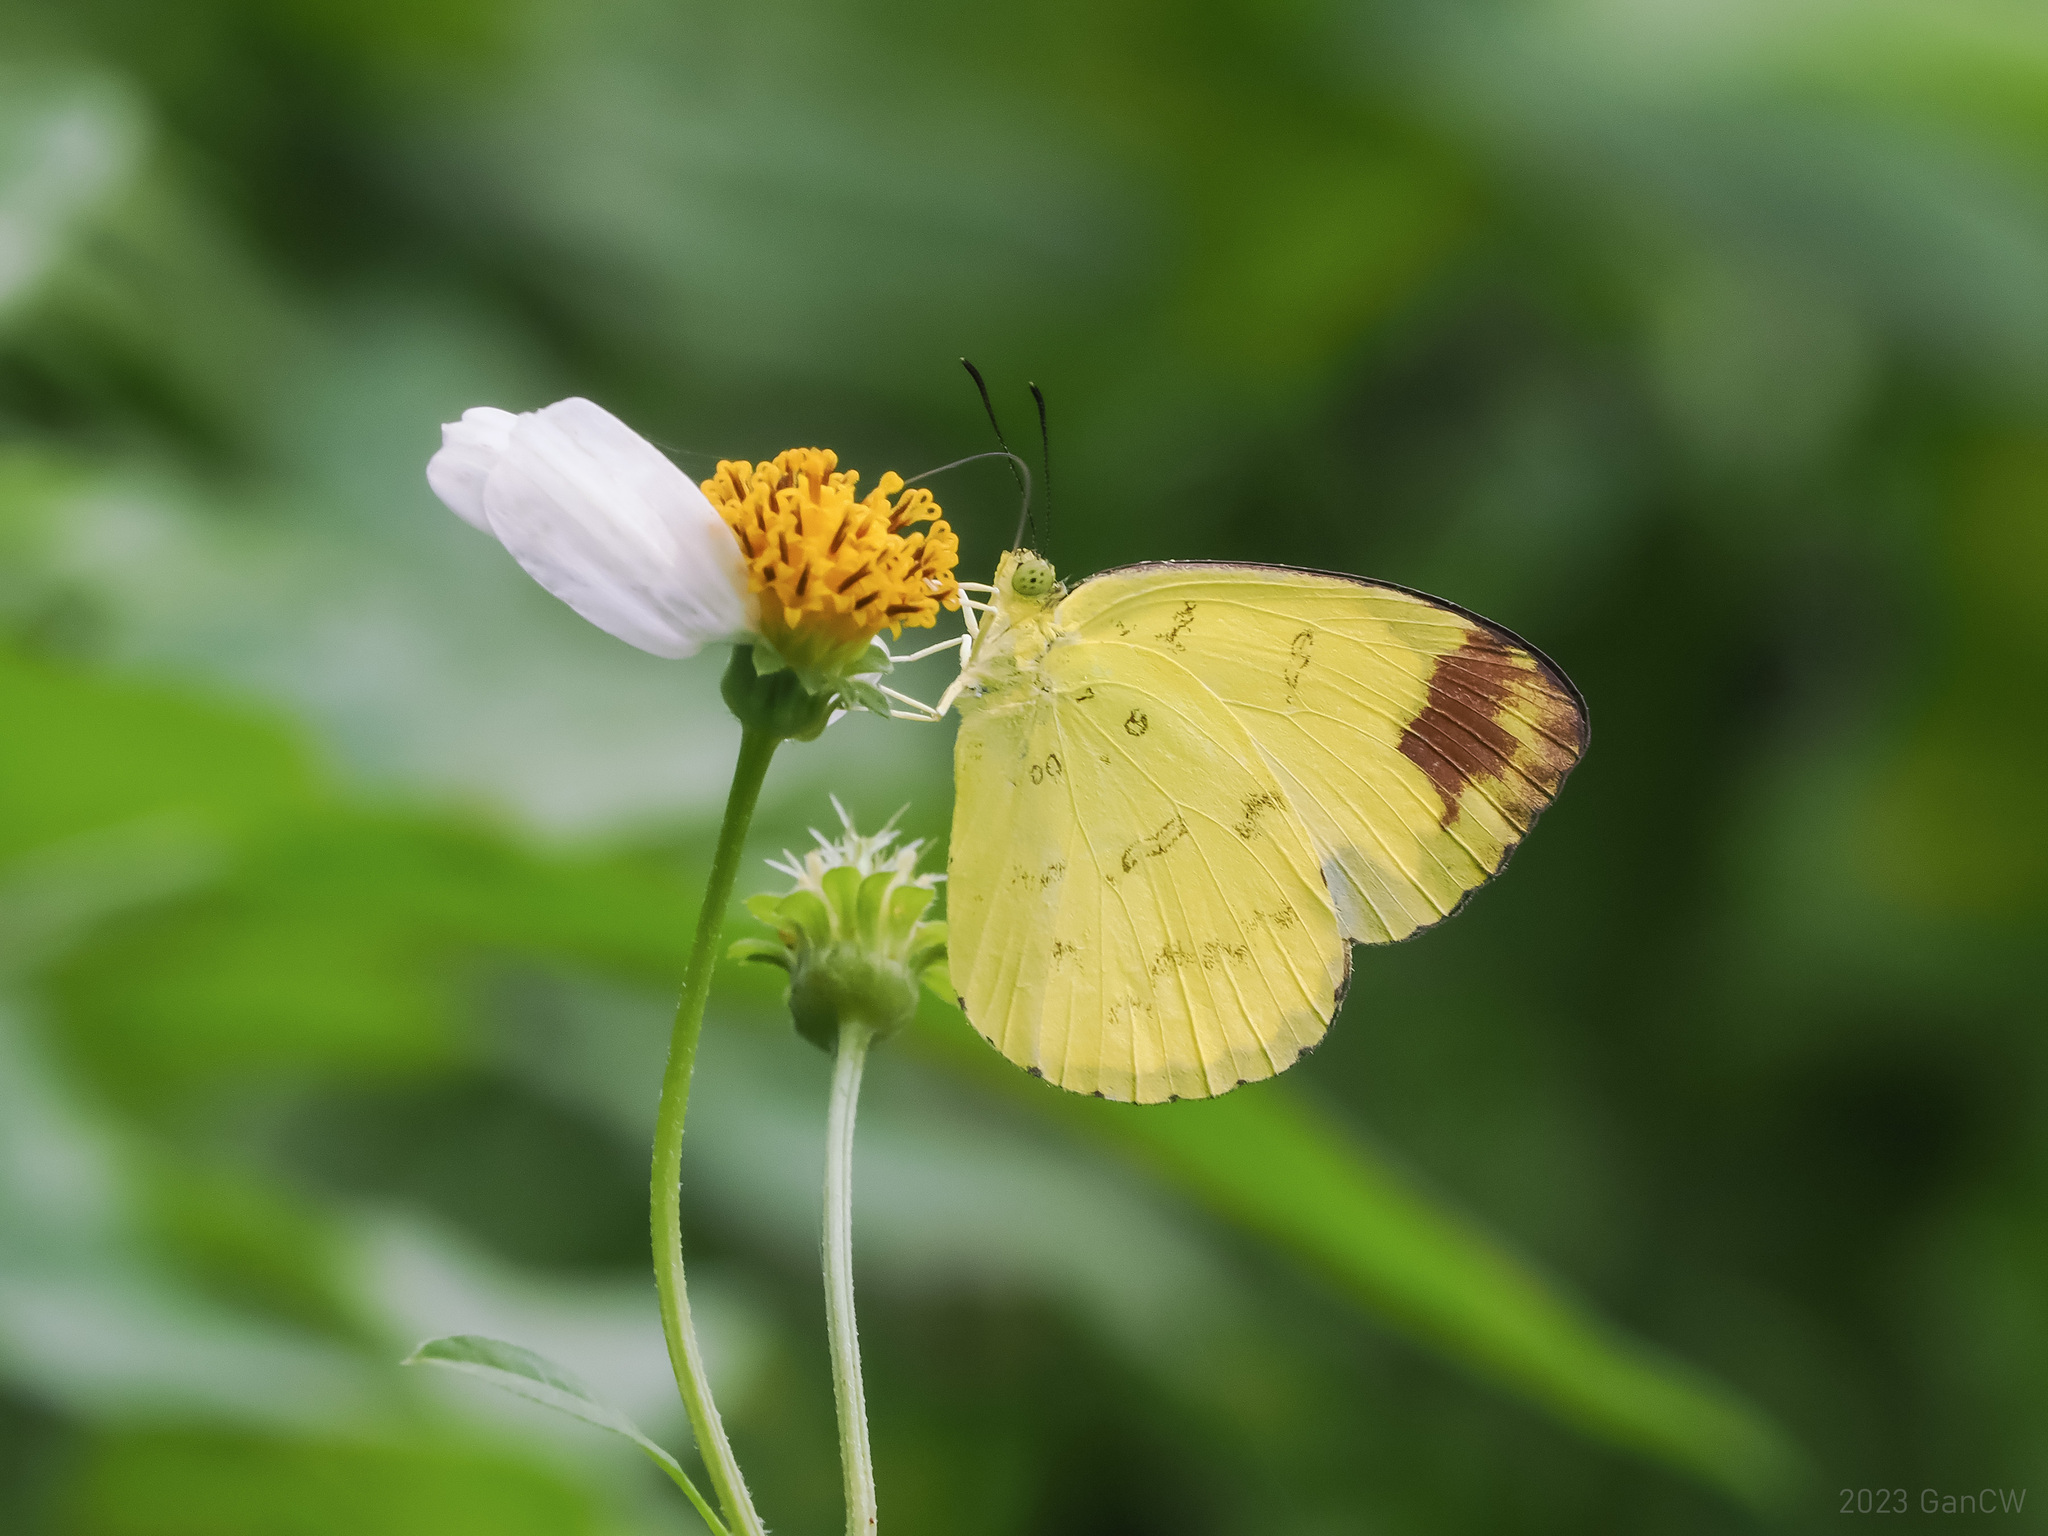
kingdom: Animalia
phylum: Arthropoda
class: Insecta
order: Lepidoptera
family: Pieridae
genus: Eurema
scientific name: Eurema simulatrix
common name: Hill grass yellow
